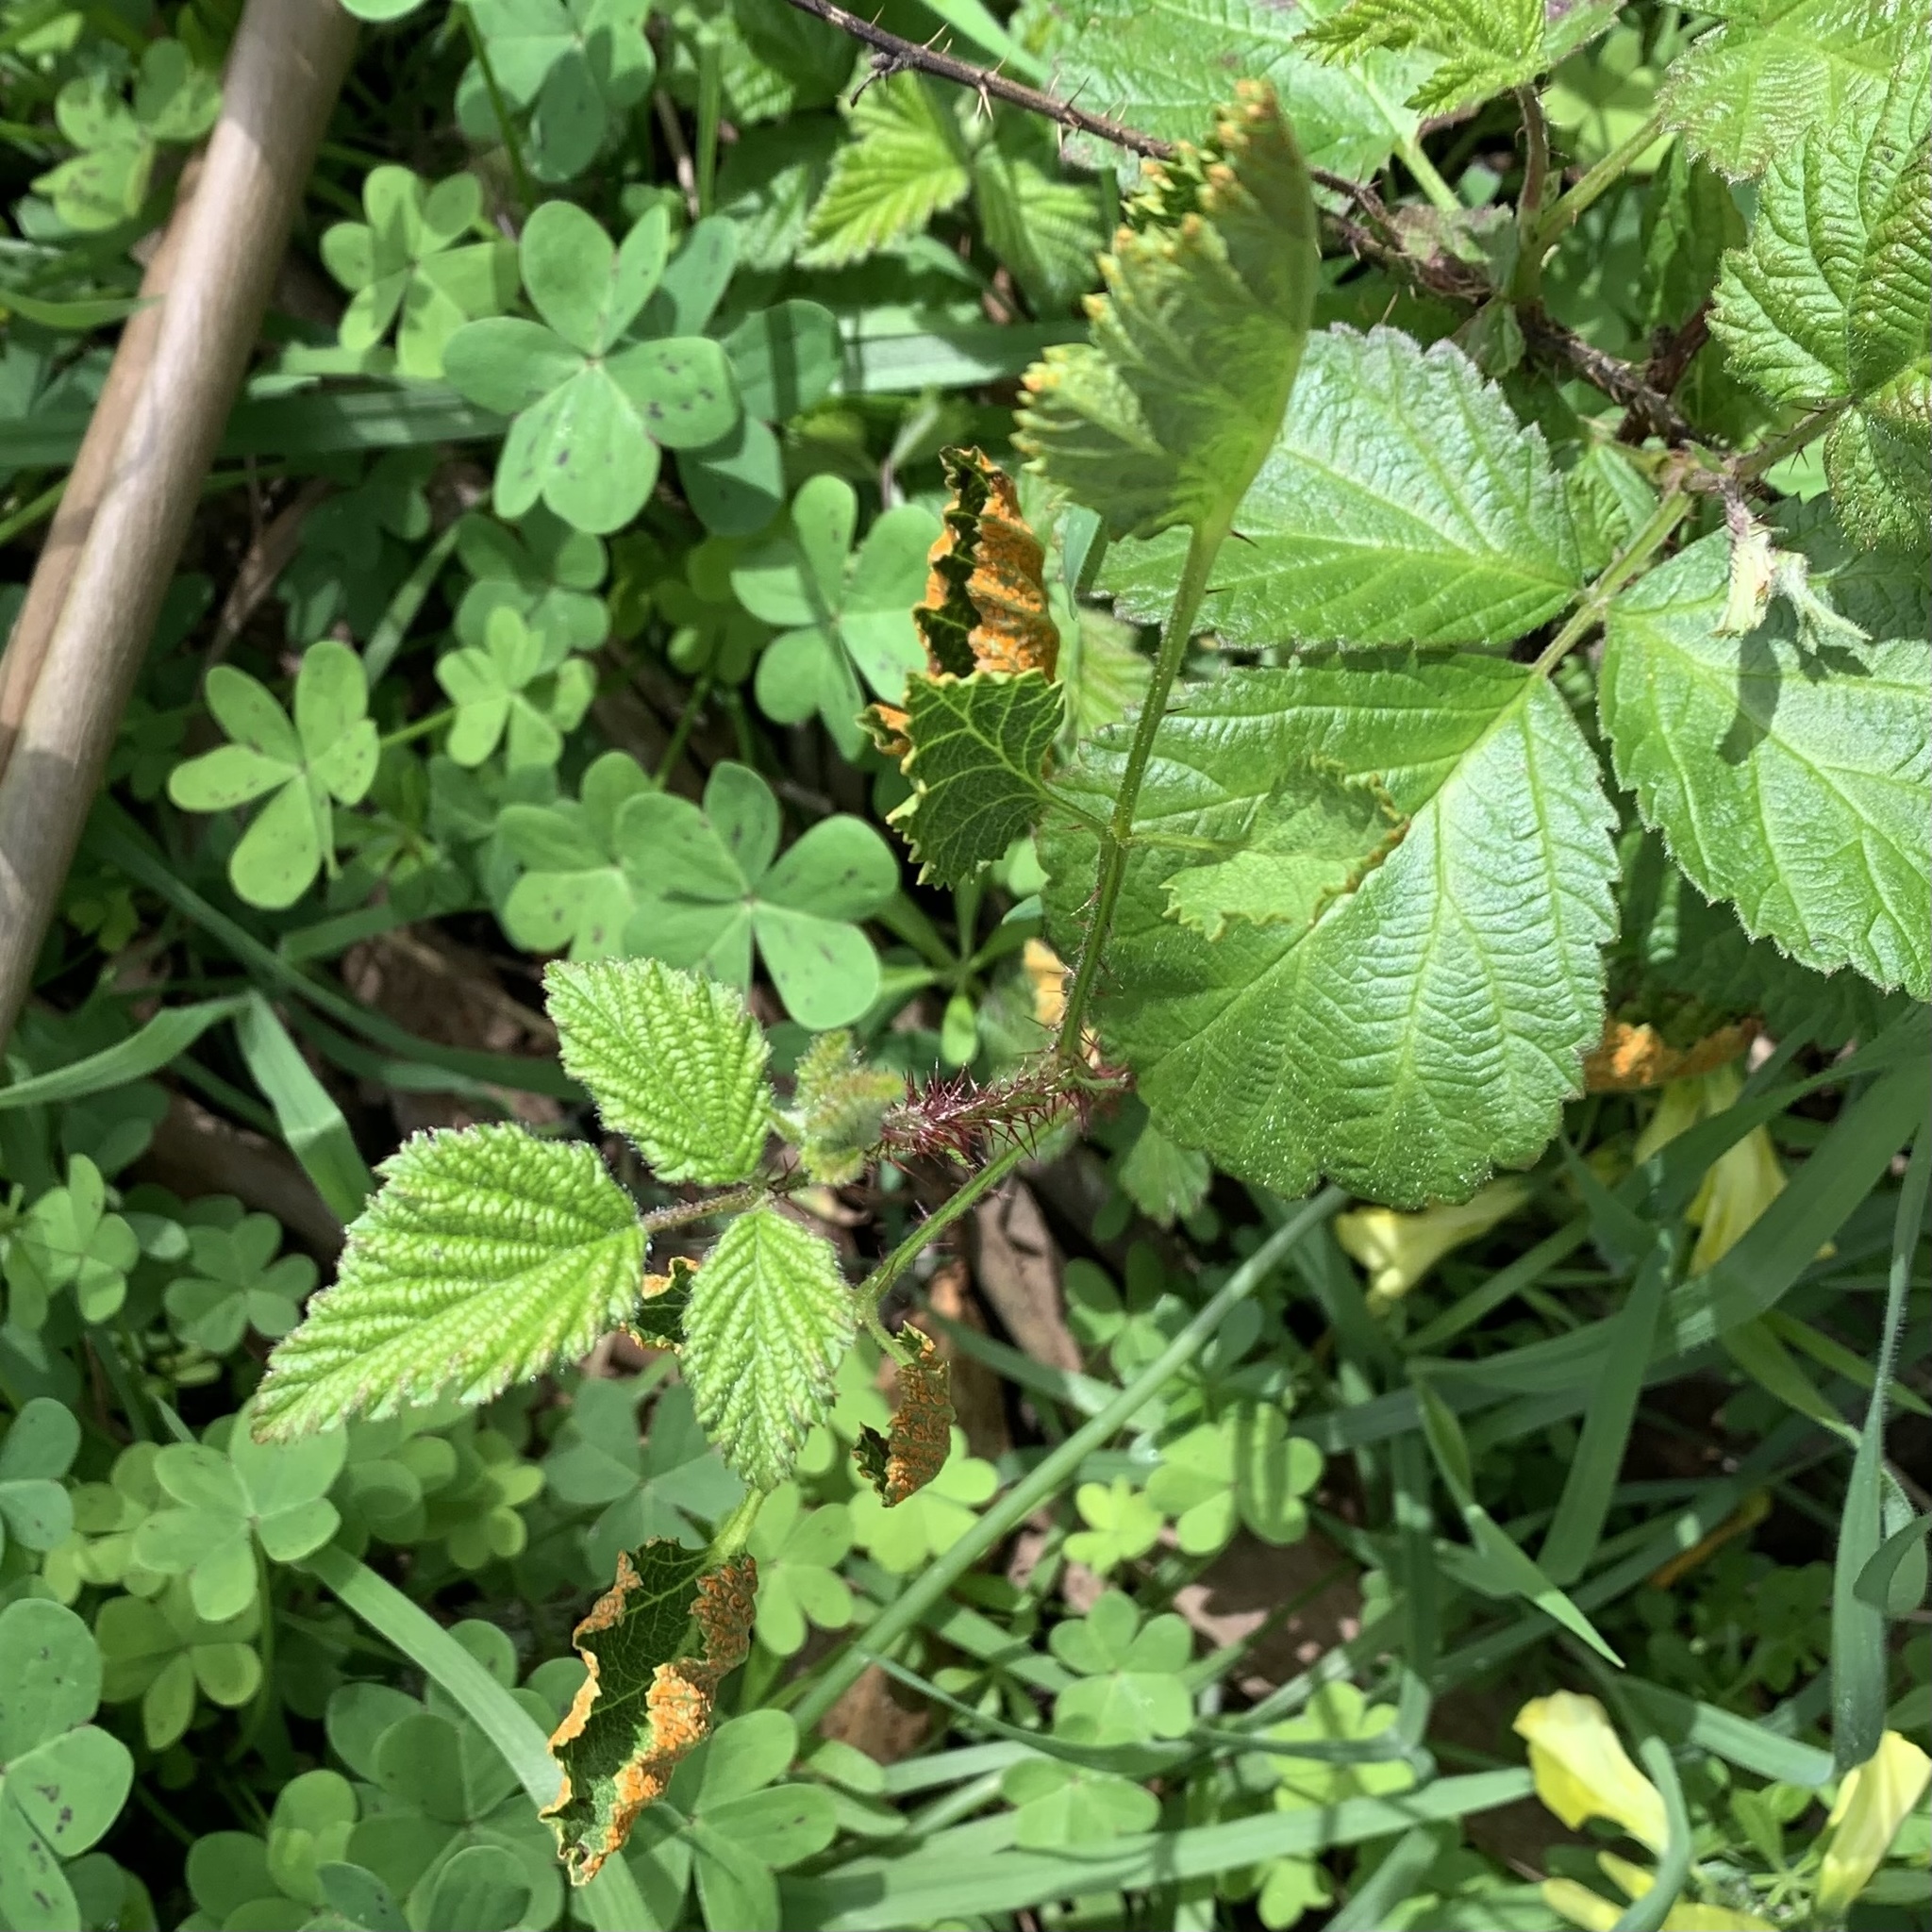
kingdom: Fungi
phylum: Basidiomycota
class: Pucciniomycetes
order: Pucciniales
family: Phragmidiaceae
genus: Arthuriomyces
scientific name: Arthuriomyces peckianus
